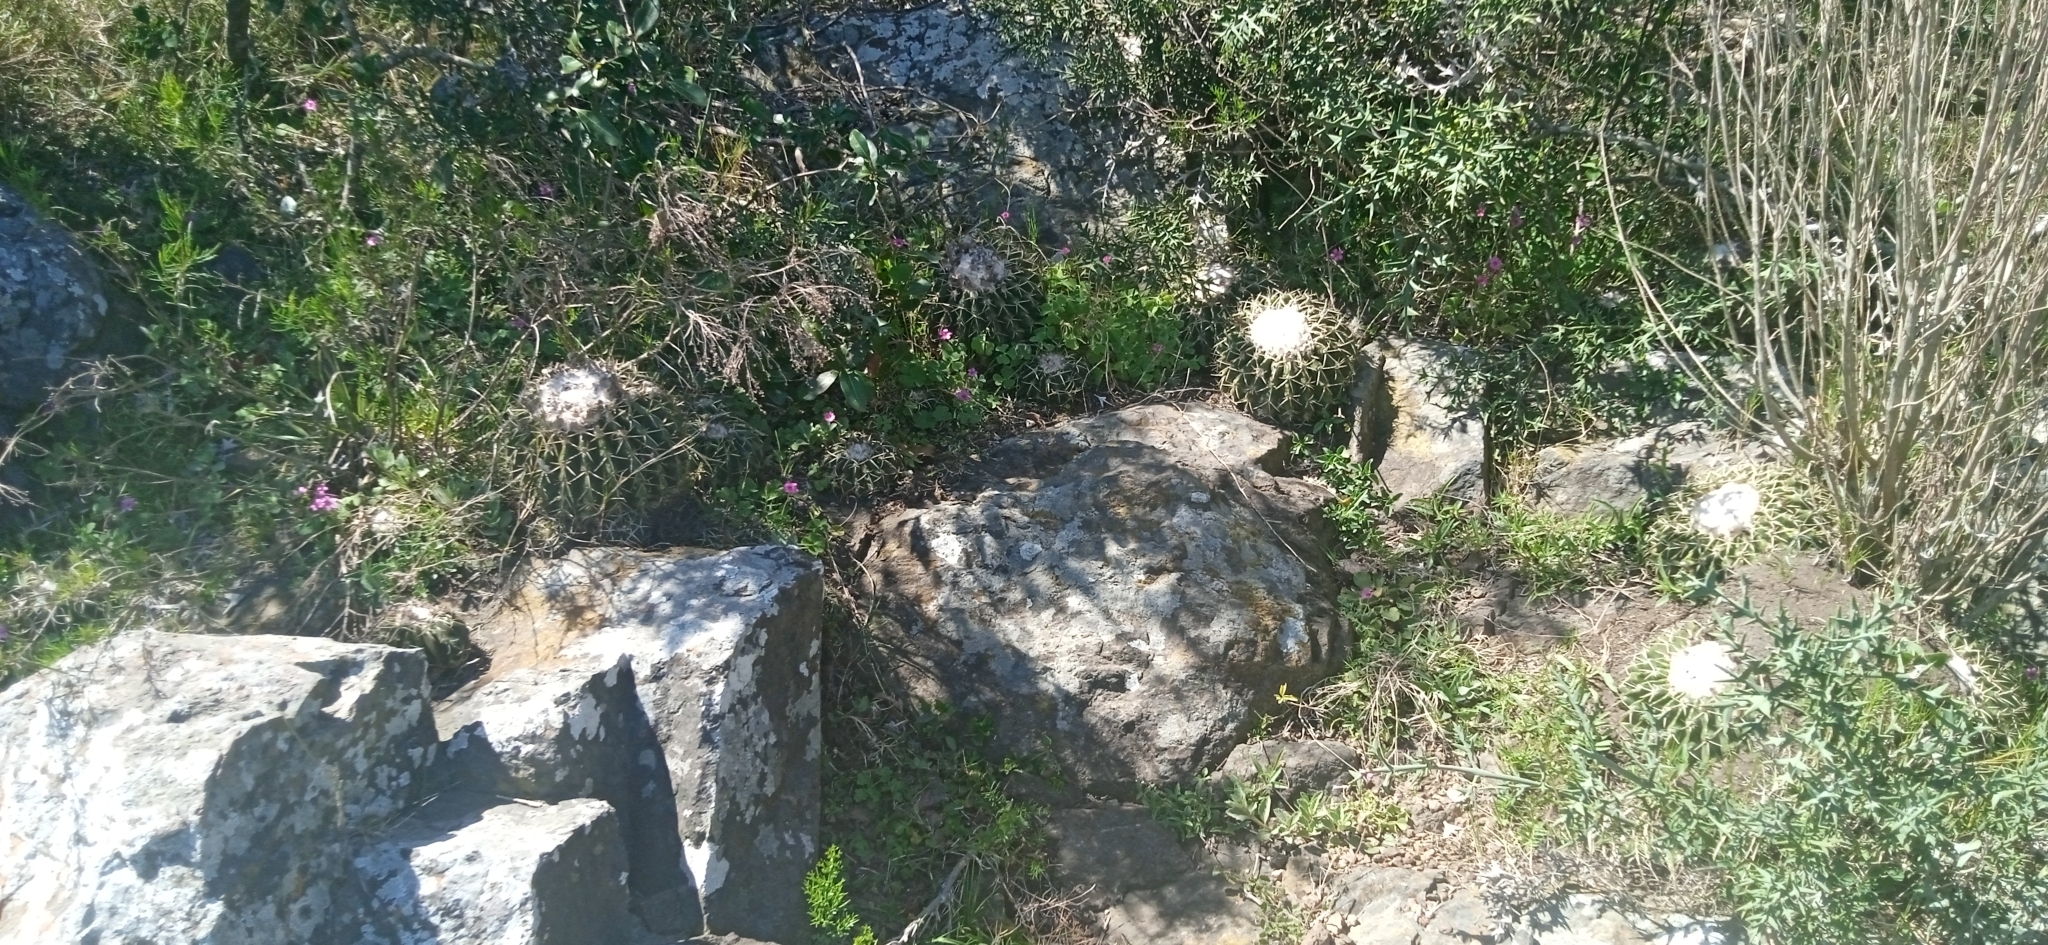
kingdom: Plantae
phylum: Tracheophyta
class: Magnoliopsida
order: Caryophyllales
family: Cactaceae
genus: Parodia
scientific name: Parodia erinacea
